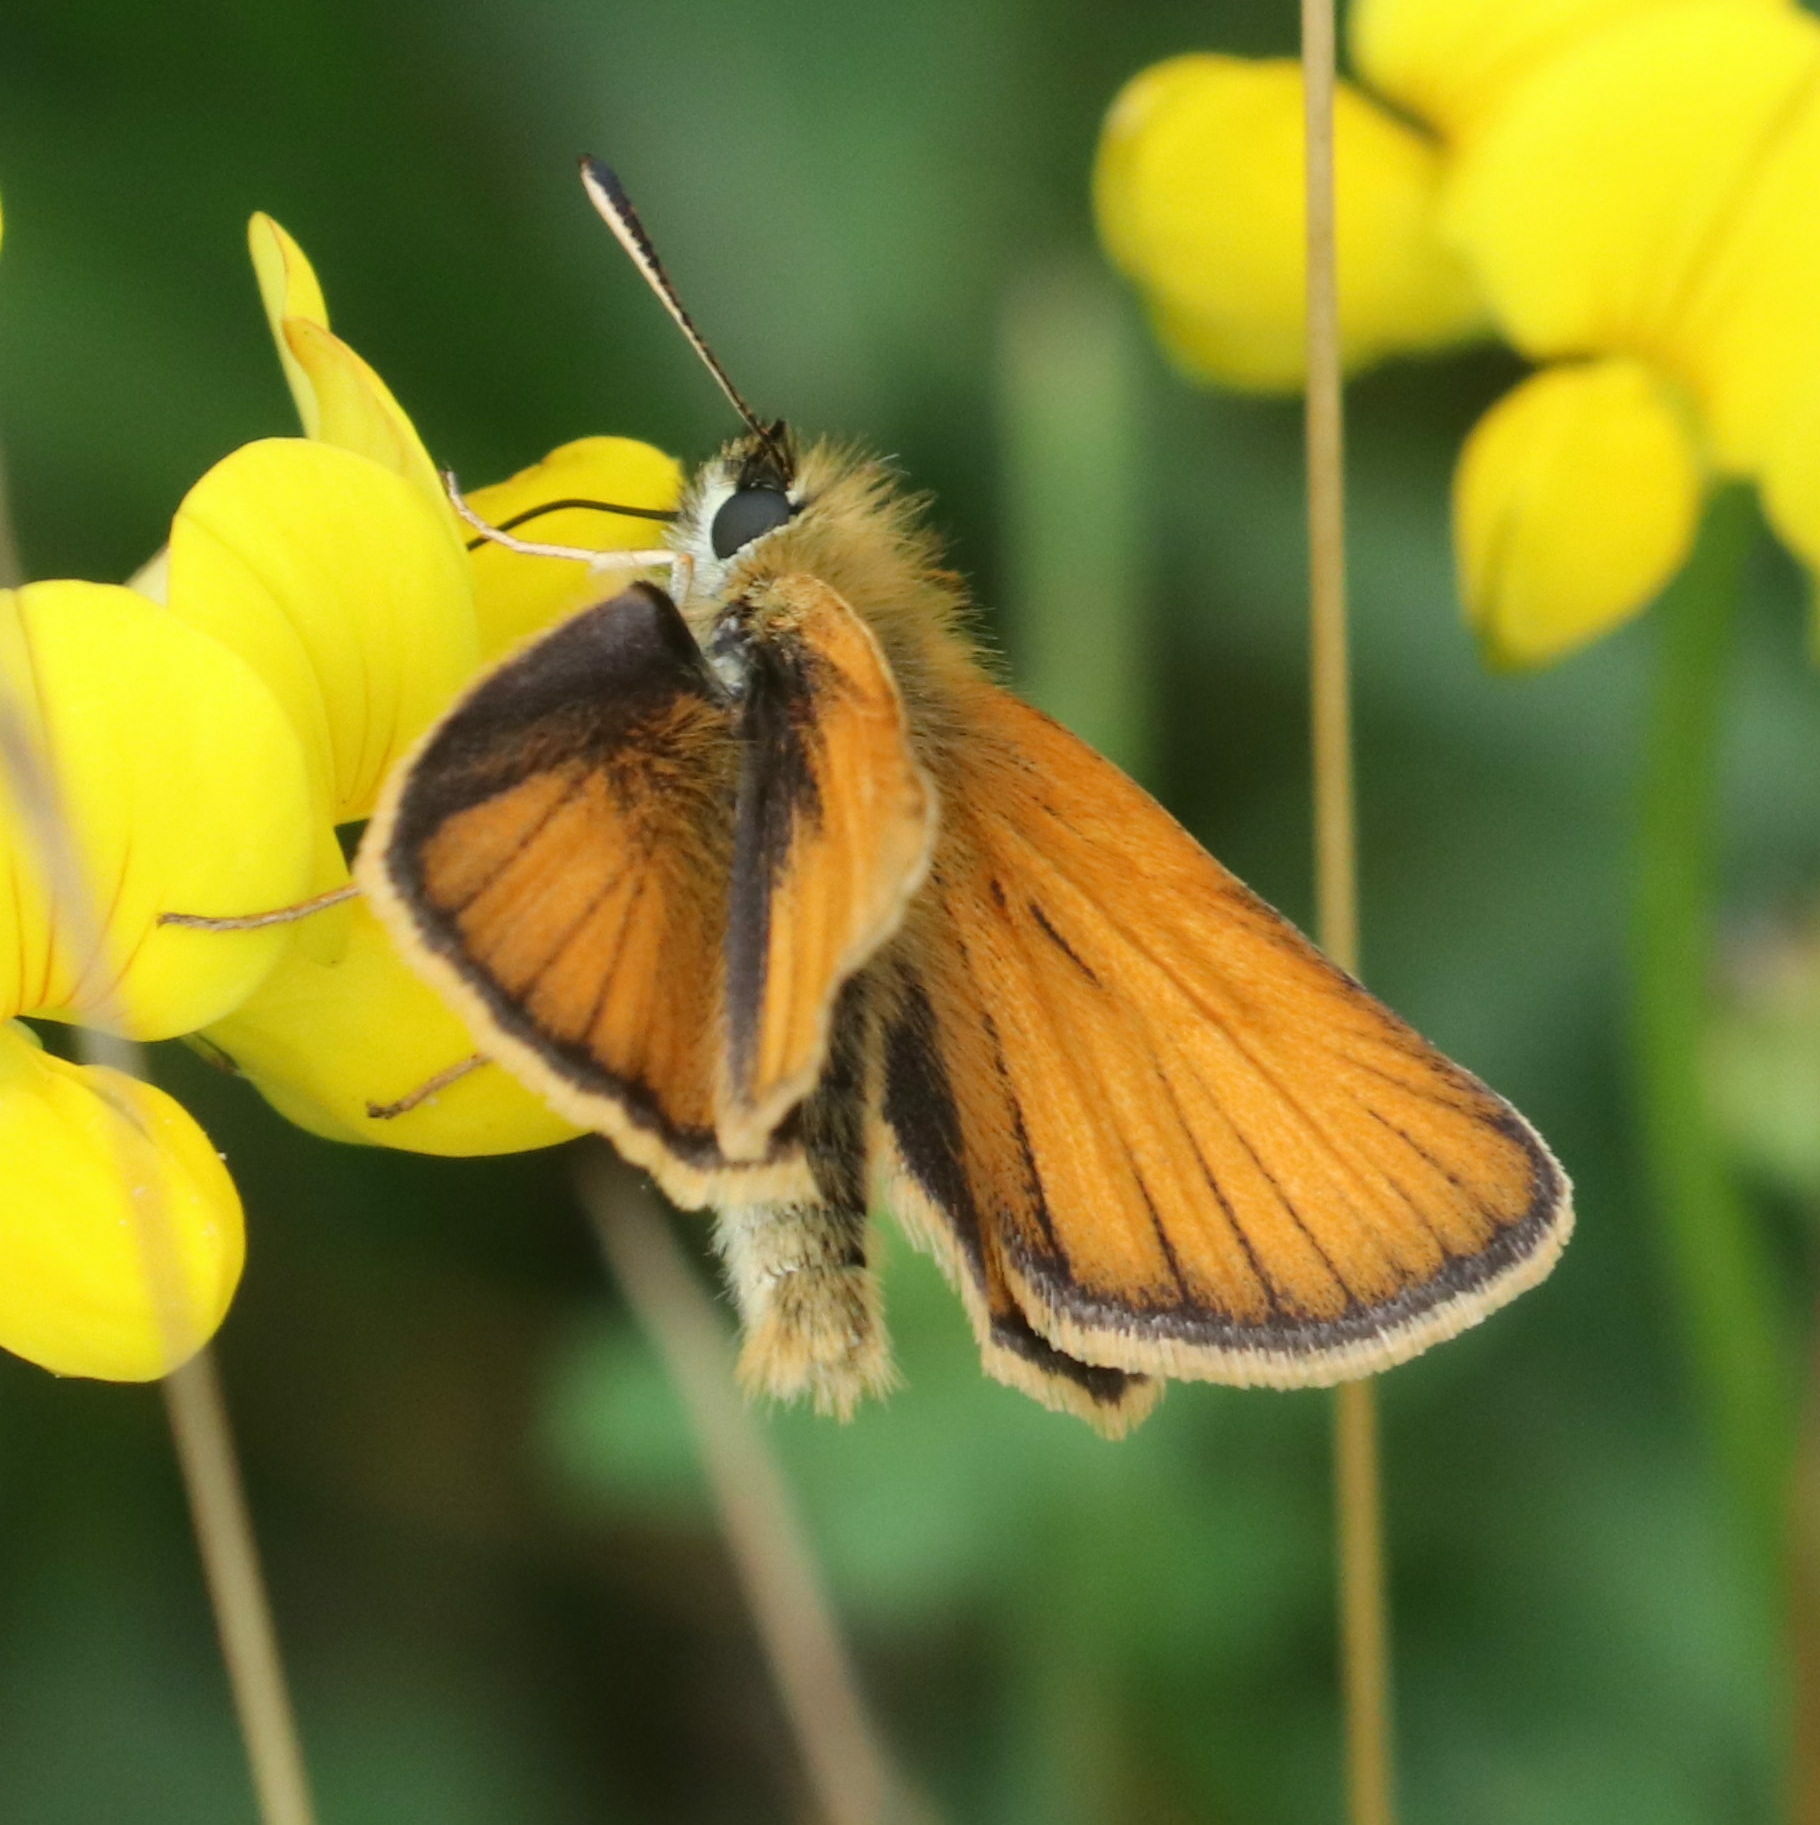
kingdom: Animalia
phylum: Arthropoda
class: Insecta
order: Lepidoptera
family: Hesperiidae
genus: Thymelicus
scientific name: Thymelicus lineola
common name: Essex skipper
